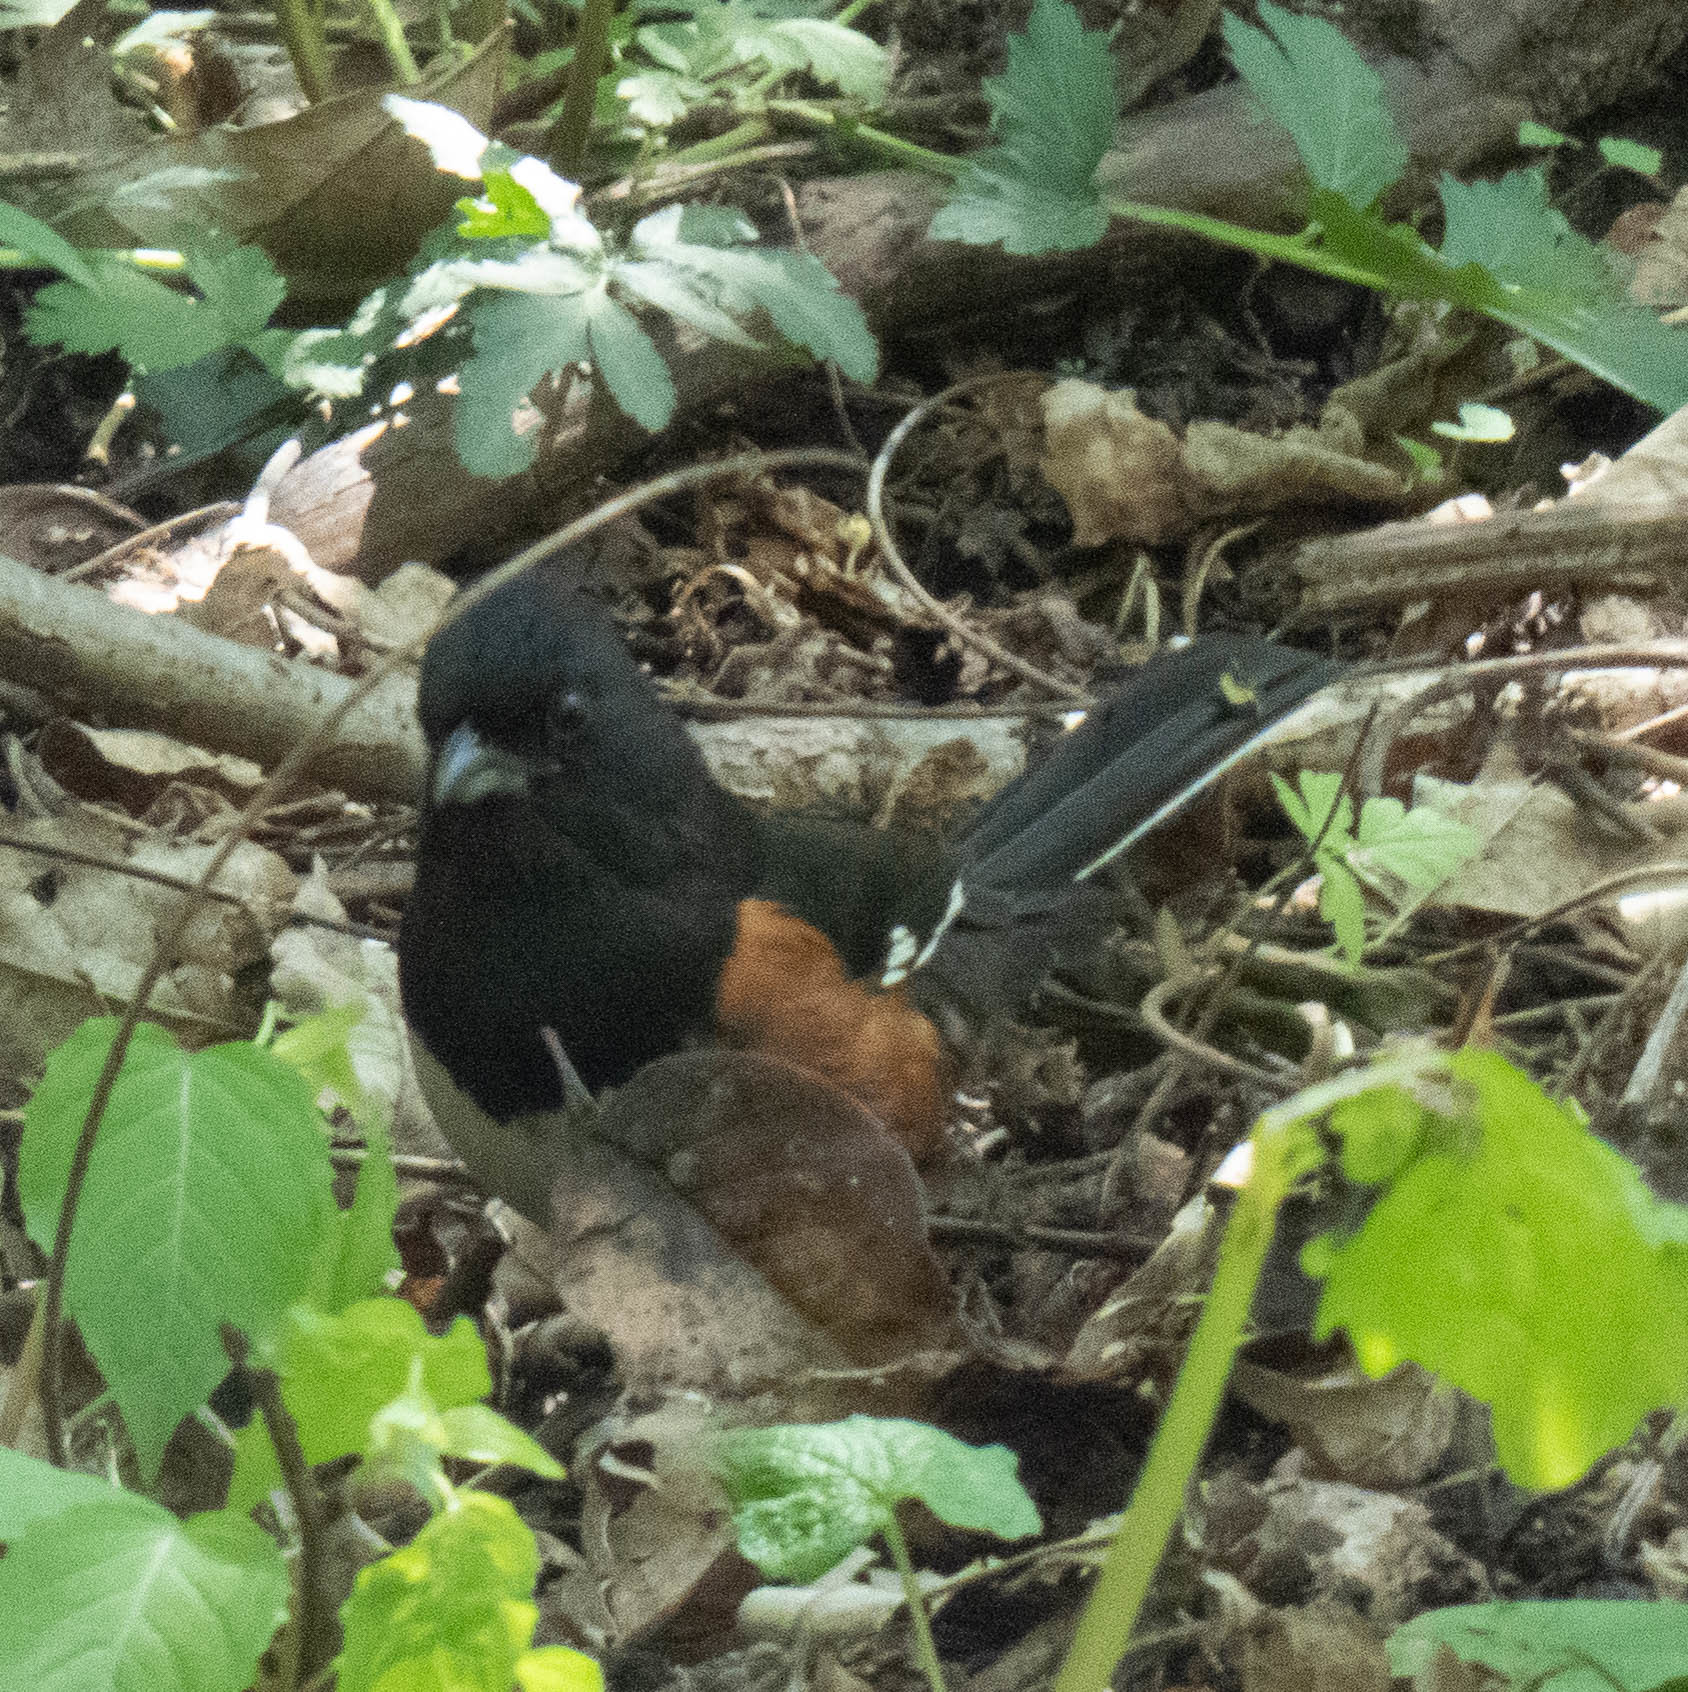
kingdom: Animalia
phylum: Chordata
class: Aves
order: Passeriformes
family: Passerellidae
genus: Pipilo
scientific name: Pipilo erythrophthalmus
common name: Eastern towhee
